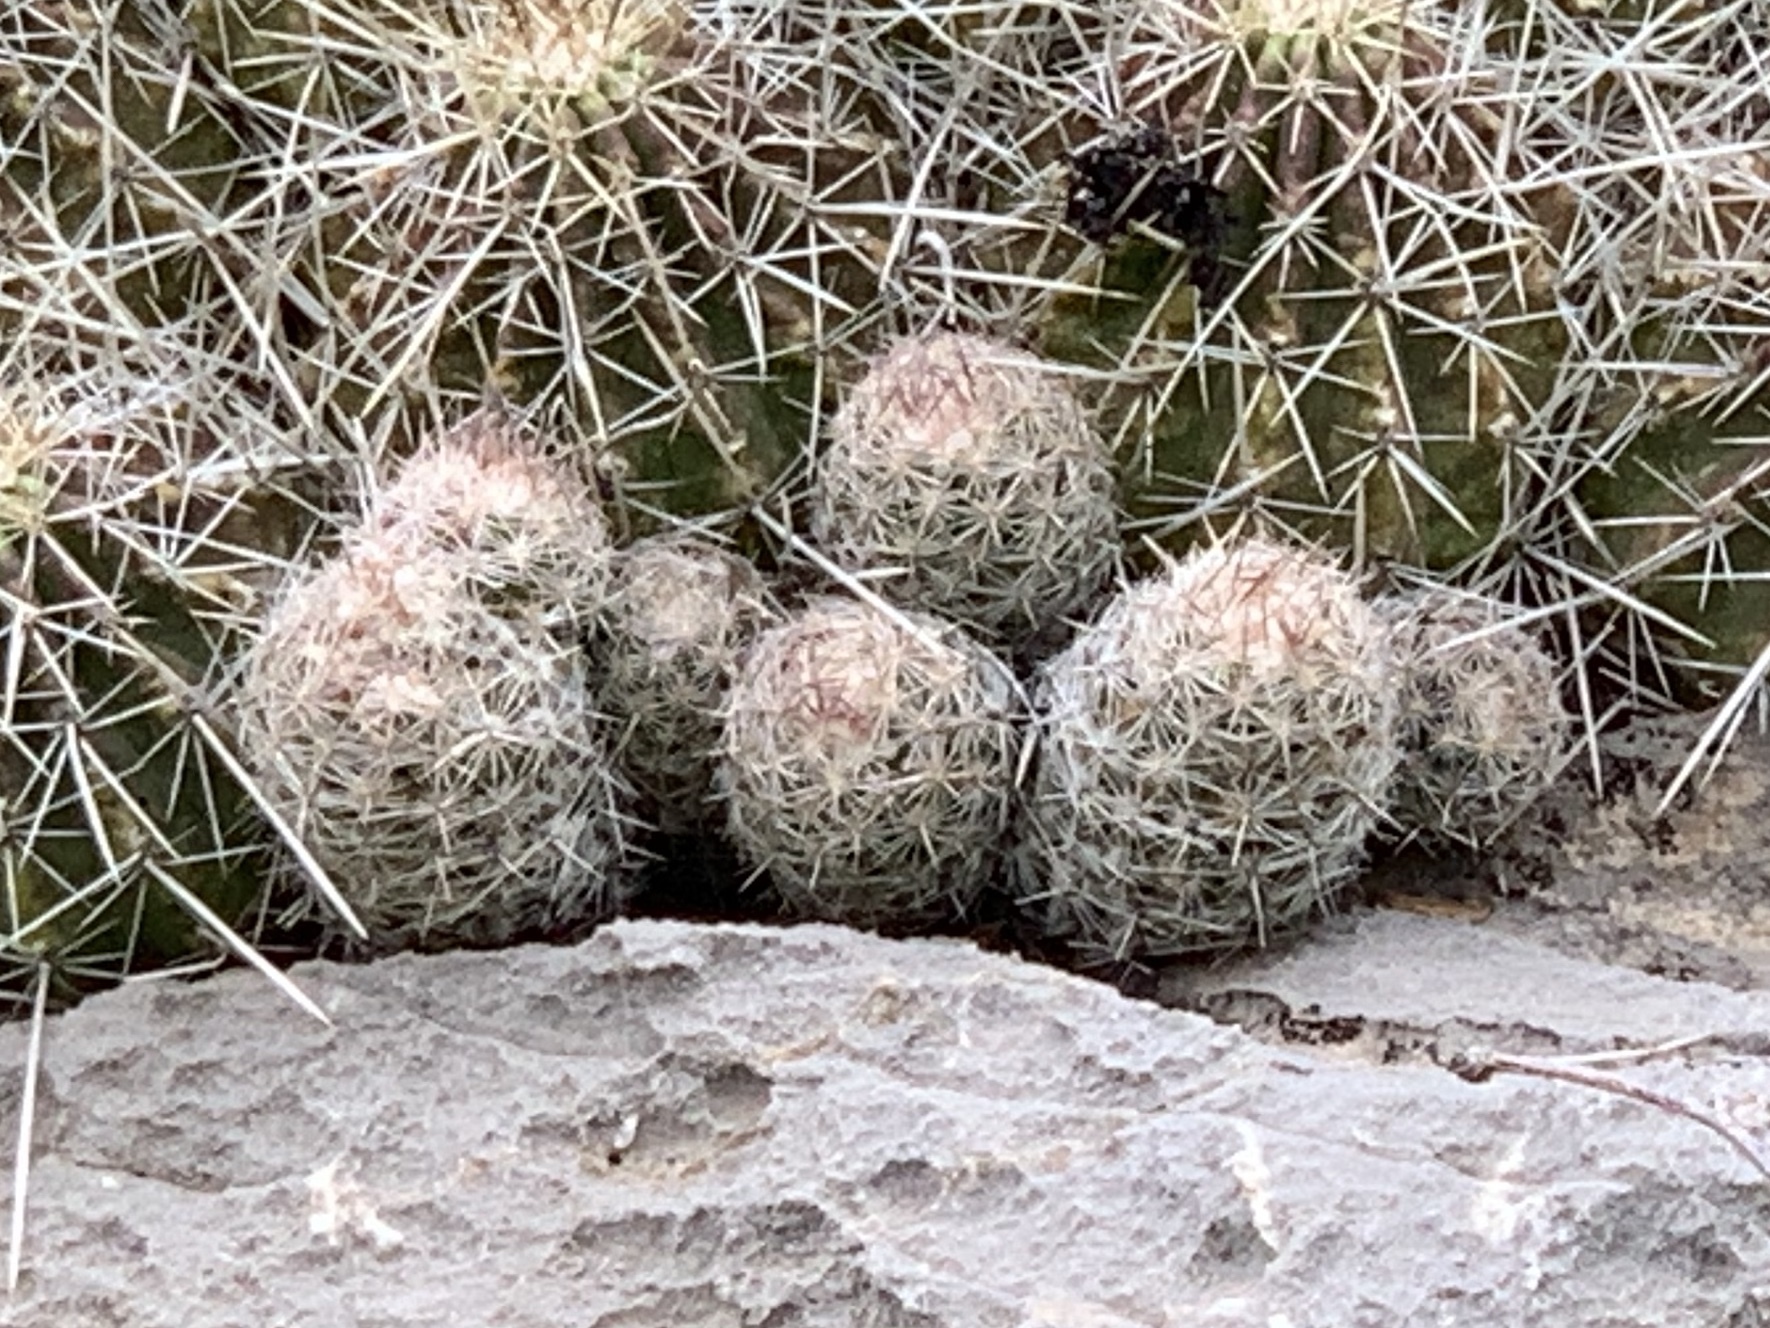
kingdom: Plantae
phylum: Tracheophyta
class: Magnoliopsida
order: Caryophyllales
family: Cactaceae
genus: Pelecyphora
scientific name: Pelecyphora tuberculosa
